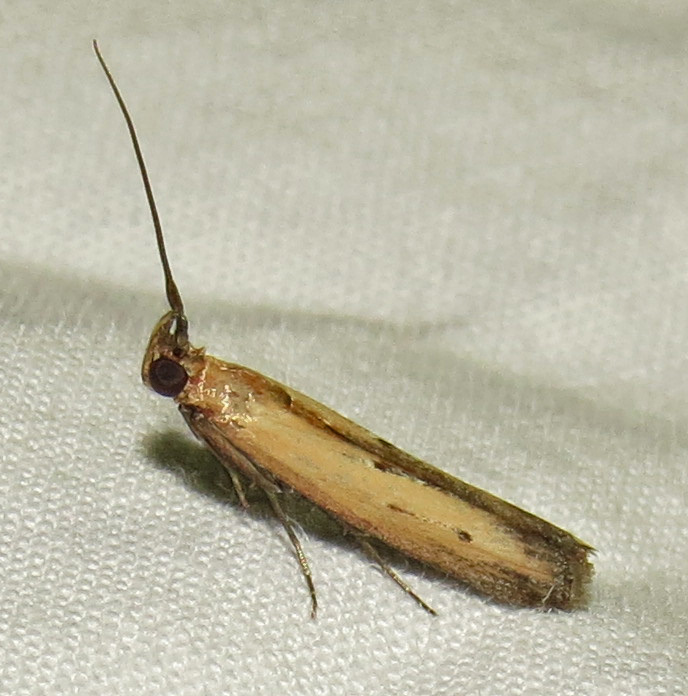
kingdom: Animalia
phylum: Arthropoda
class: Insecta
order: Lepidoptera
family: Pyralidae
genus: Elasmopalpus
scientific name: Elasmopalpus lignosella
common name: Lesser cornstalk borer
